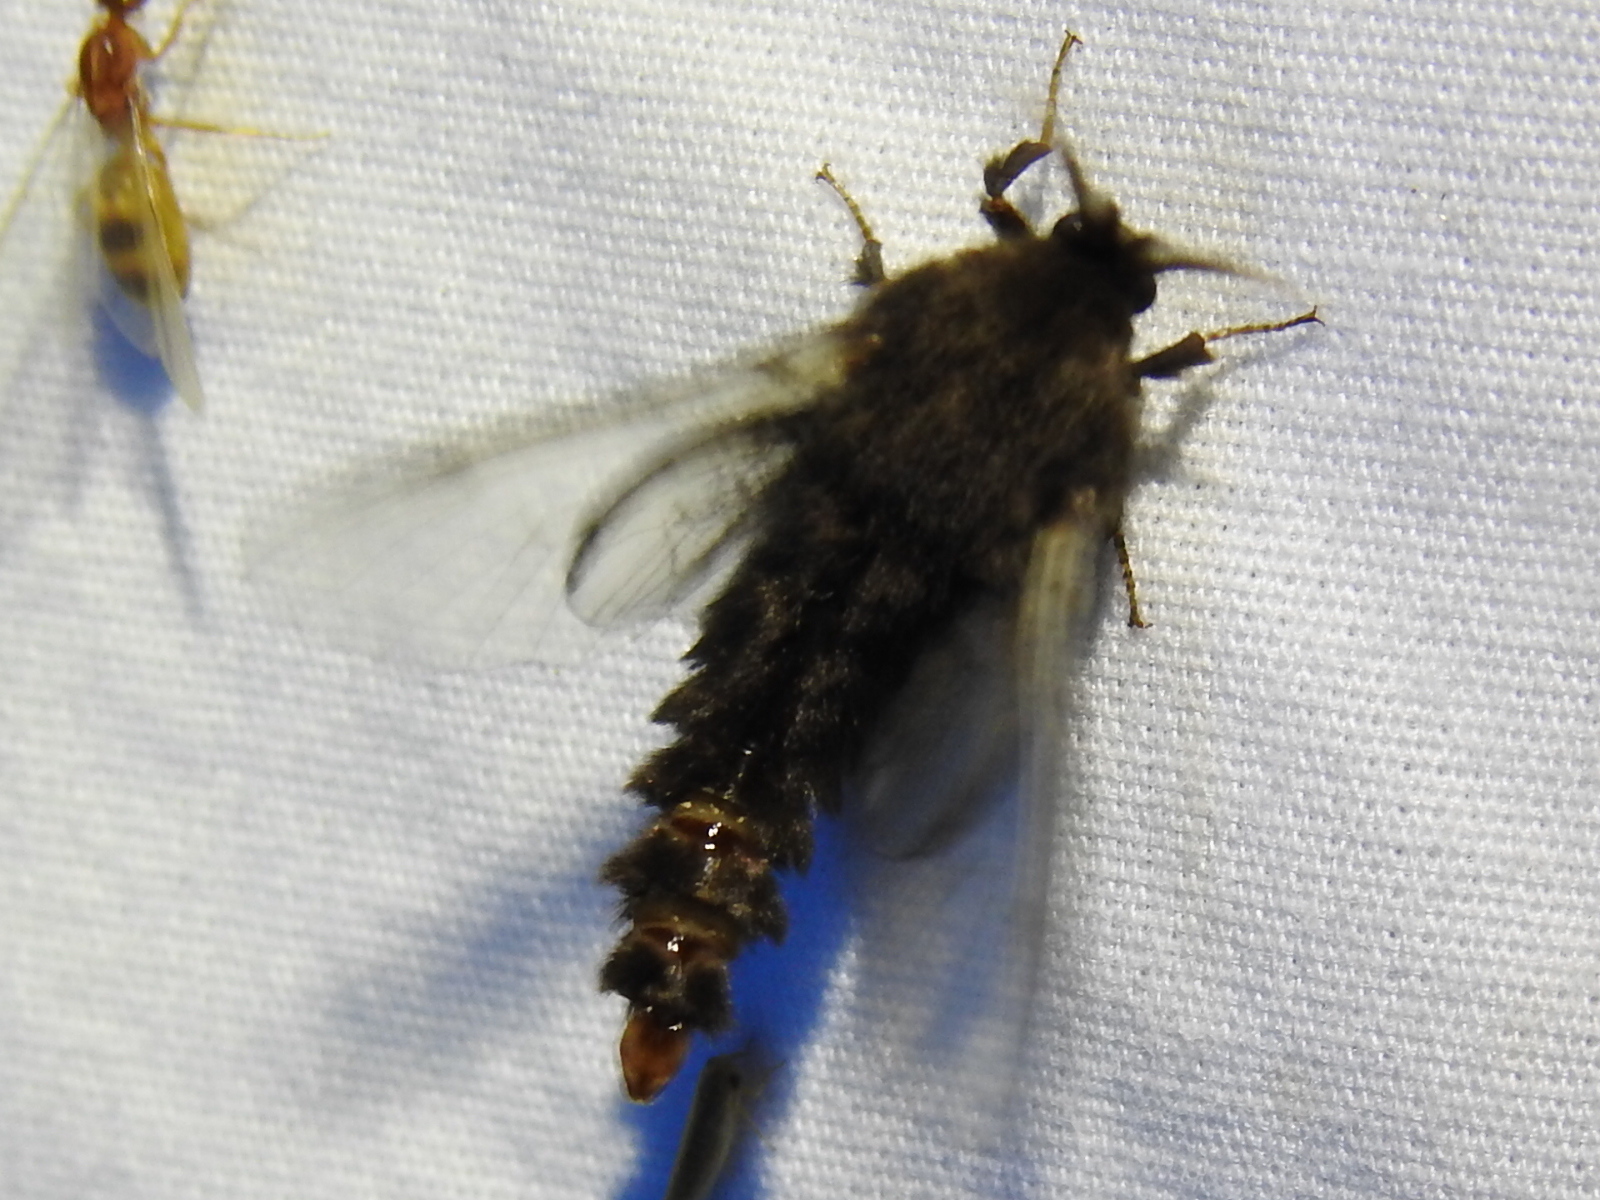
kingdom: Animalia
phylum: Arthropoda
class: Insecta
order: Lepidoptera
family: Psychidae
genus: Thyridopteryx
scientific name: Thyridopteryx ephemeraeformis
